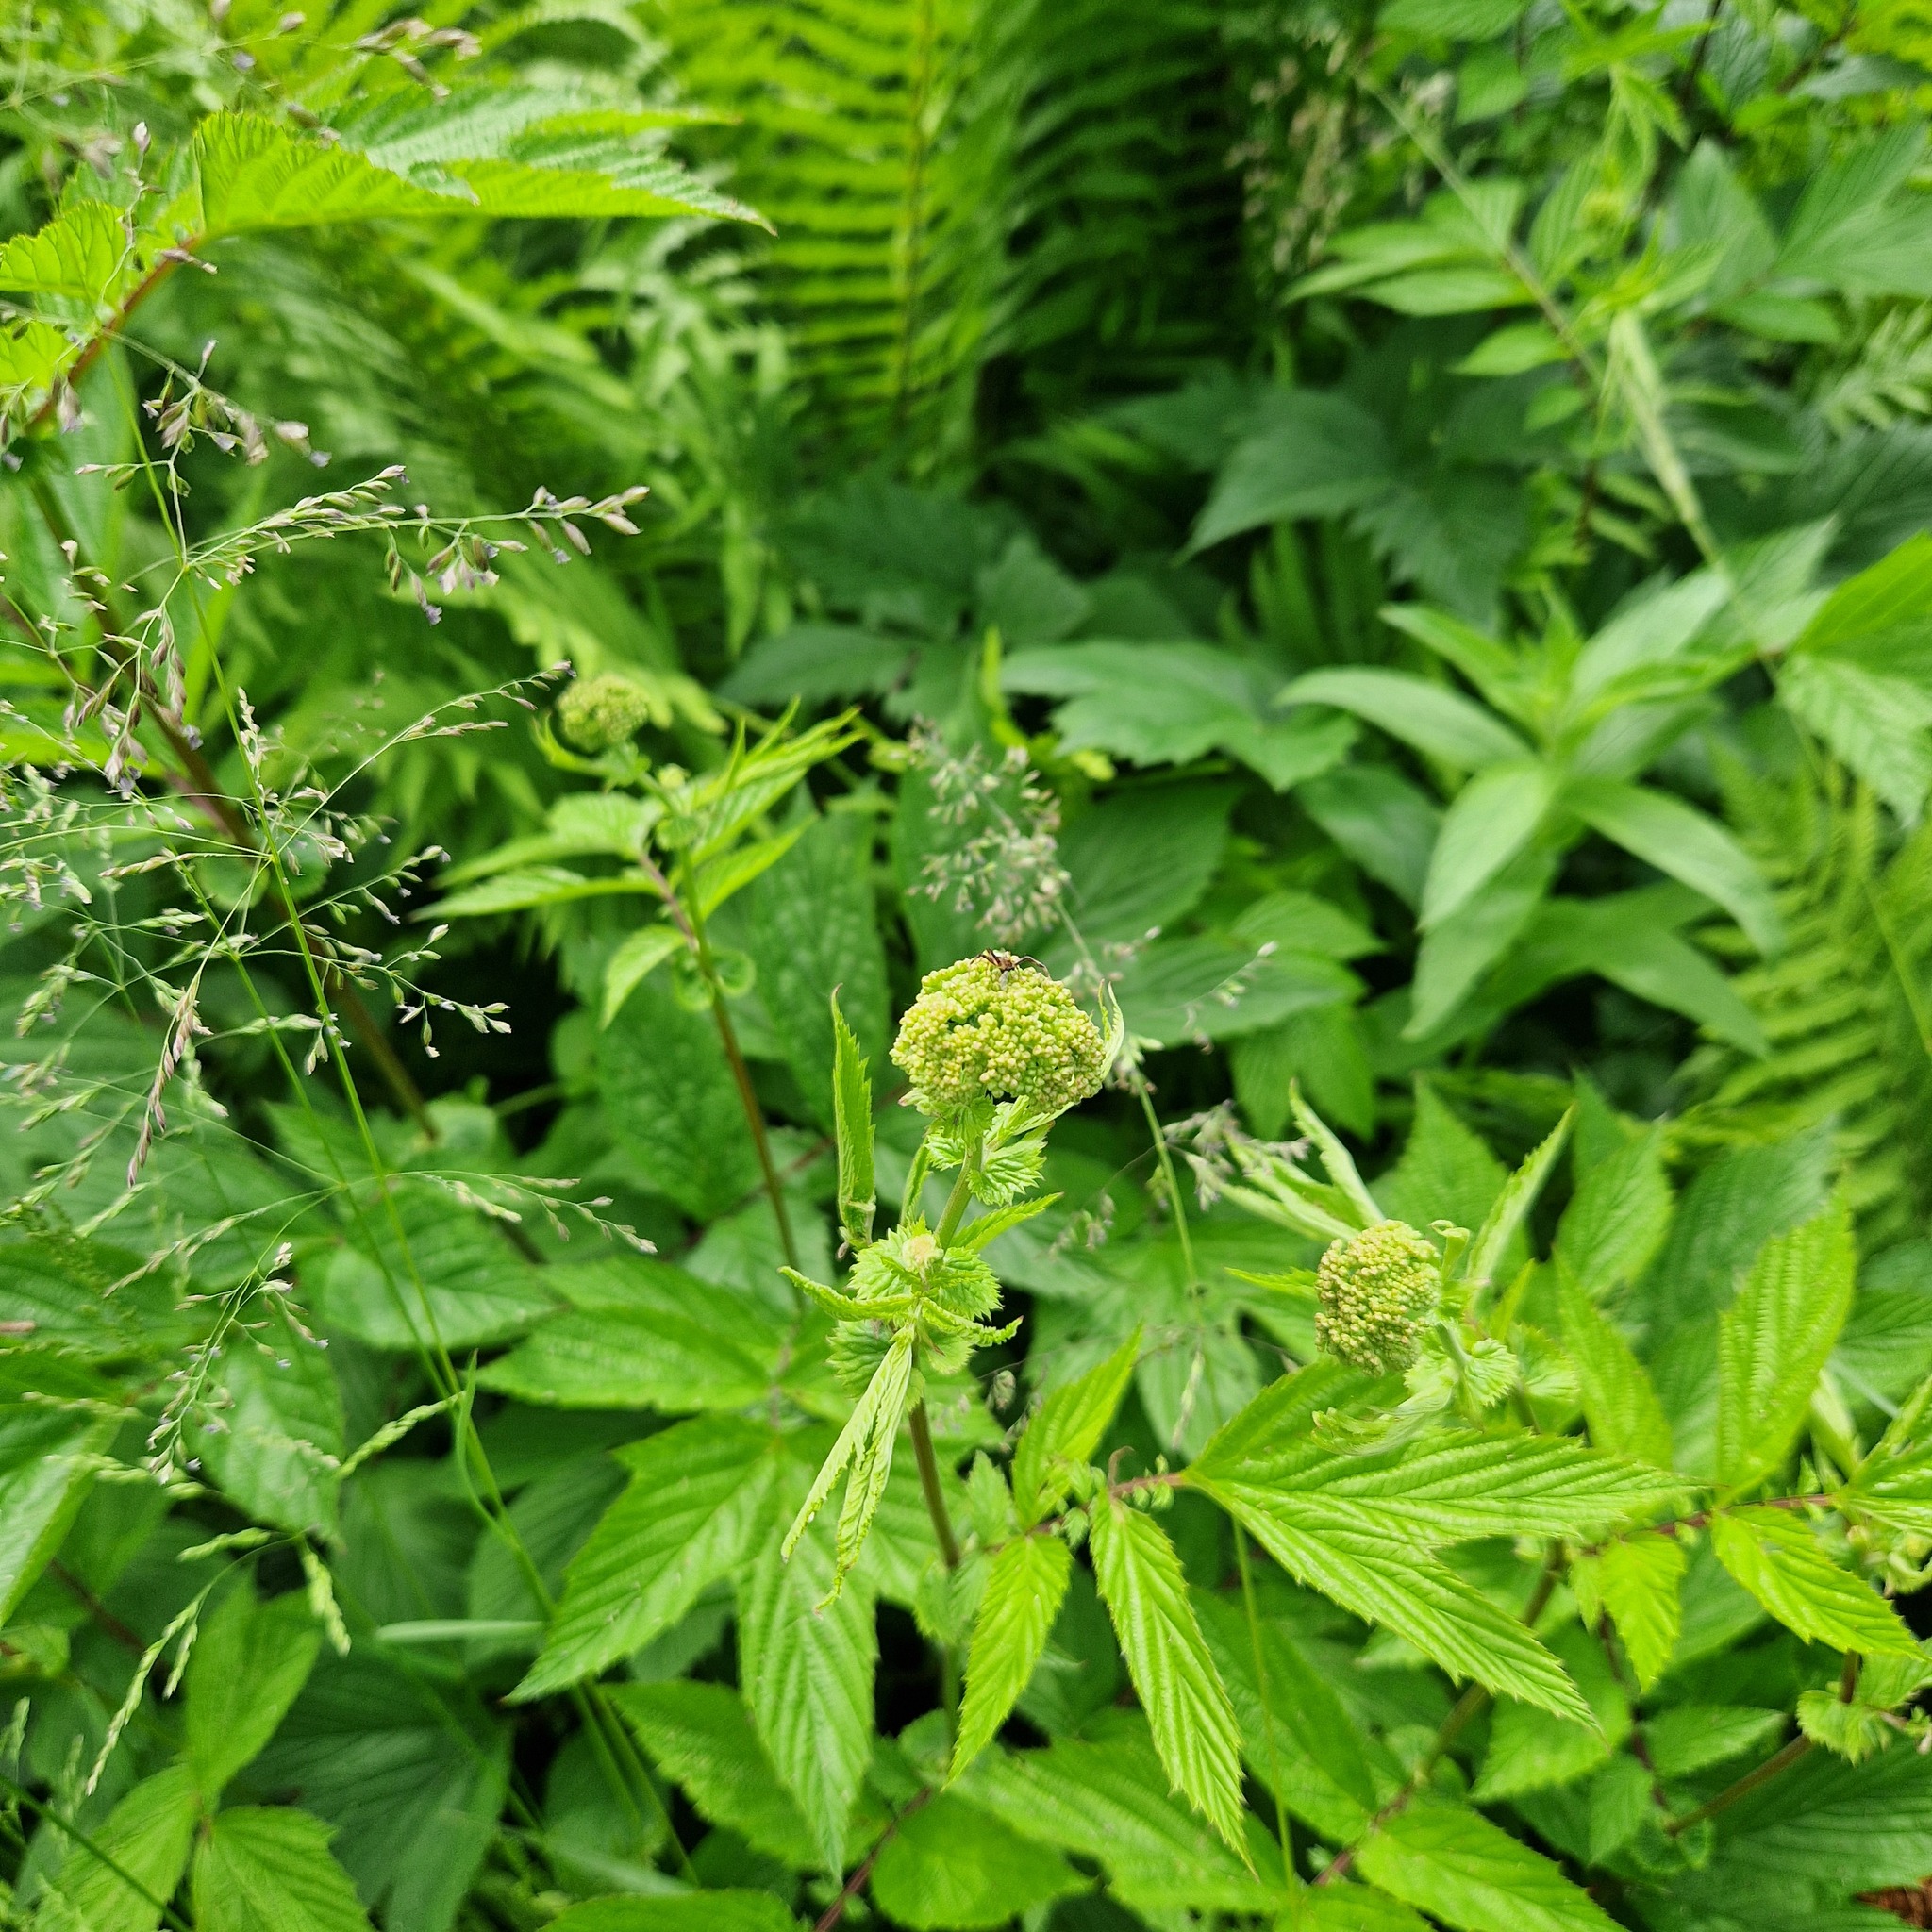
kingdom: Animalia
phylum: Arthropoda
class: Arachnida
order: Araneae
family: Thomisidae
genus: Ebrechtella
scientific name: Ebrechtella tricuspidata
